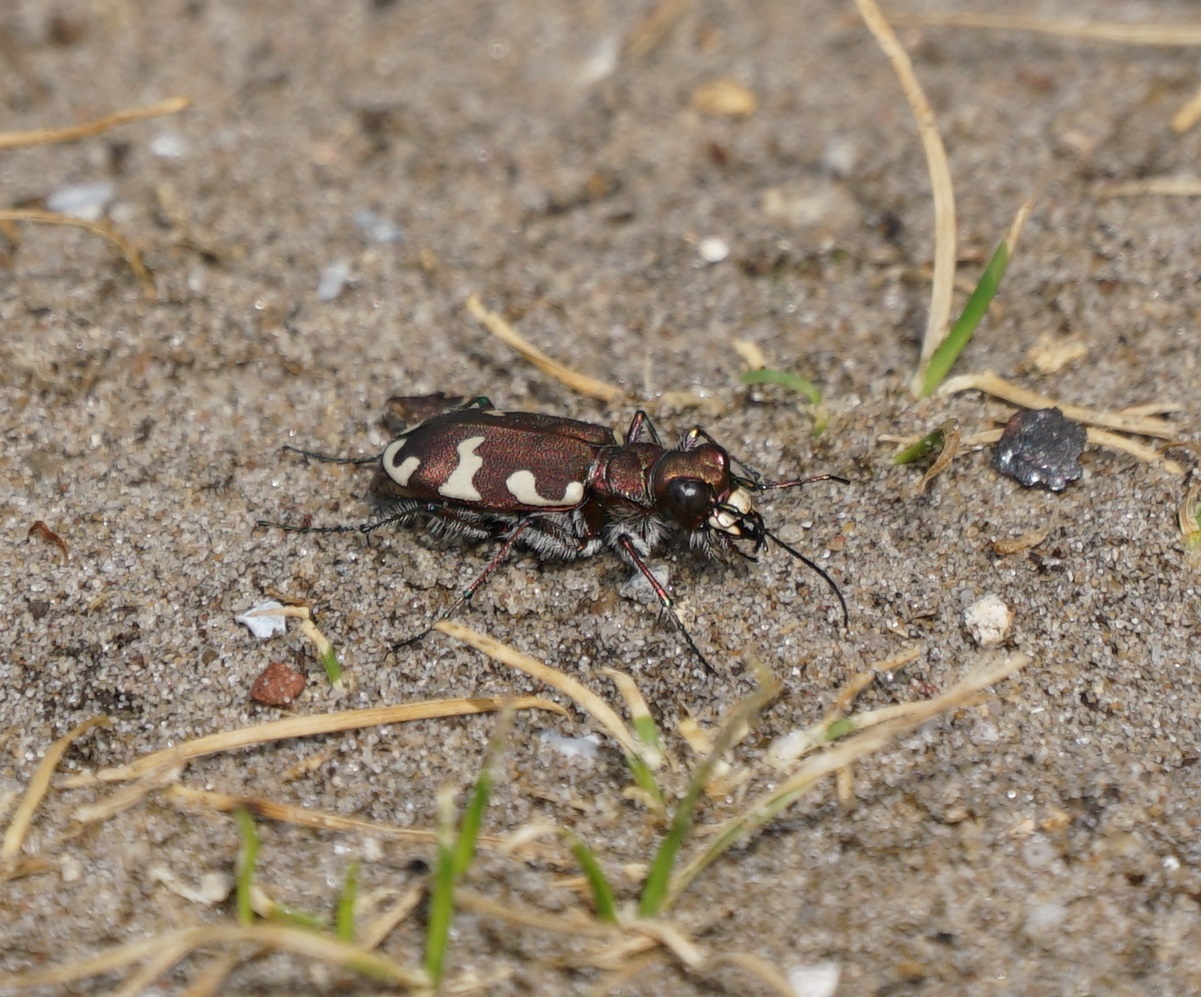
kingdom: Animalia
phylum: Arthropoda
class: Insecta
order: Coleoptera
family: Carabidae
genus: Cicindela
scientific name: Cicindela hybrida
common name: Northern dune tiger beetle
